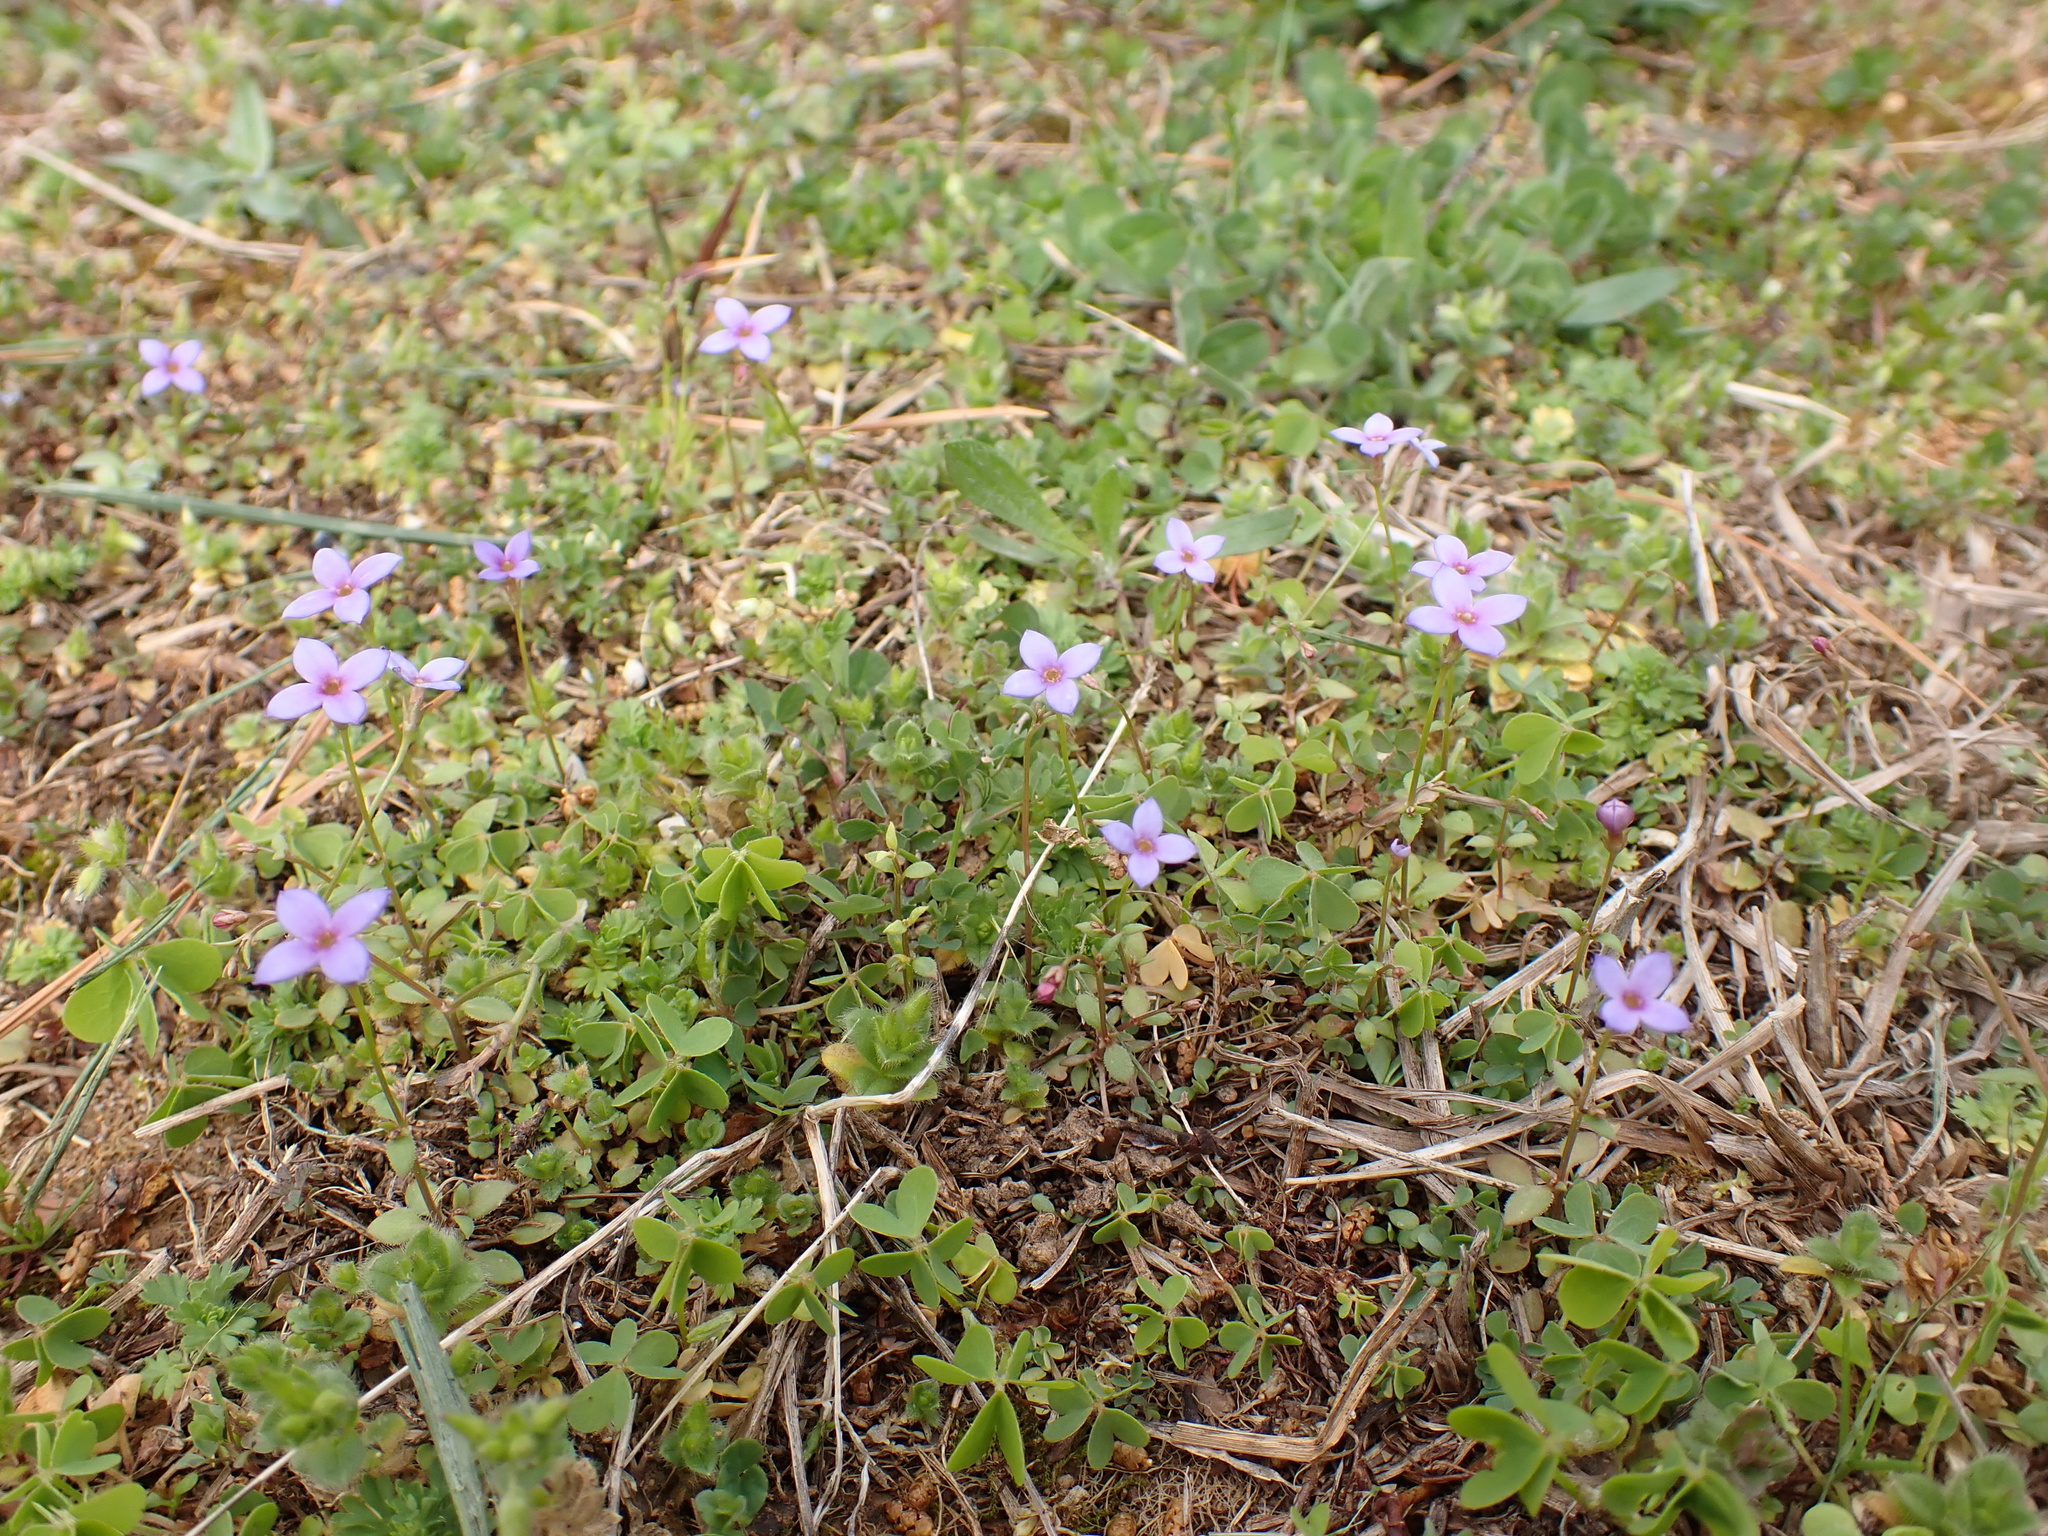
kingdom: Plantae
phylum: Tracheophyta
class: Magnoliopsida
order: Gentianales
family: Rubiaceae
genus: Houstonia
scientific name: Houstonia pusilla
